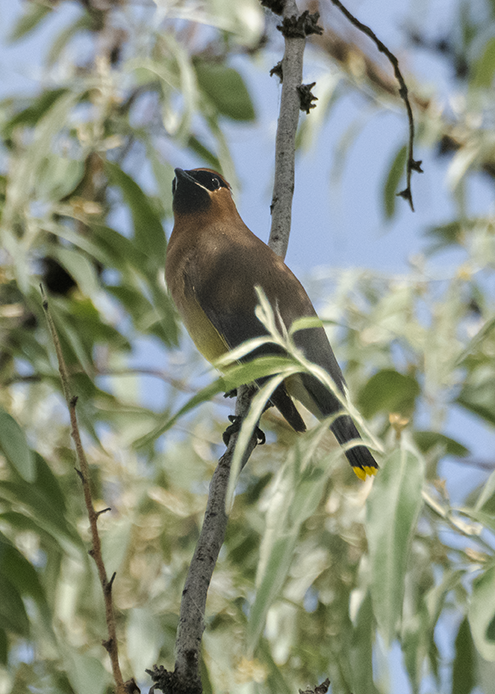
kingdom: Animalia
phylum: Chordata
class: Aves
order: Passeriformes
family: Bombycillidae
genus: Bombycilla
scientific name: Bombycilla cedrorum
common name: Cedar waxwing
